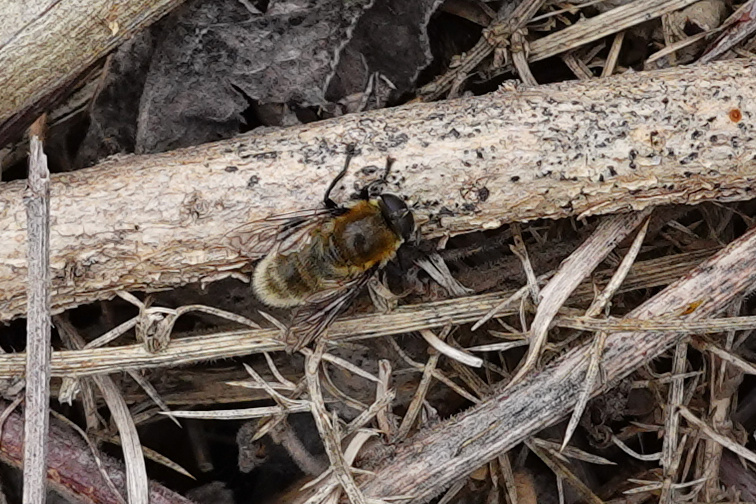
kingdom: Animalia
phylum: Arthropoda
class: Insecta
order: Diptera
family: Syrphidae
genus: Merodon
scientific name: Merodon equestris
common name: Greater bulb-fly
